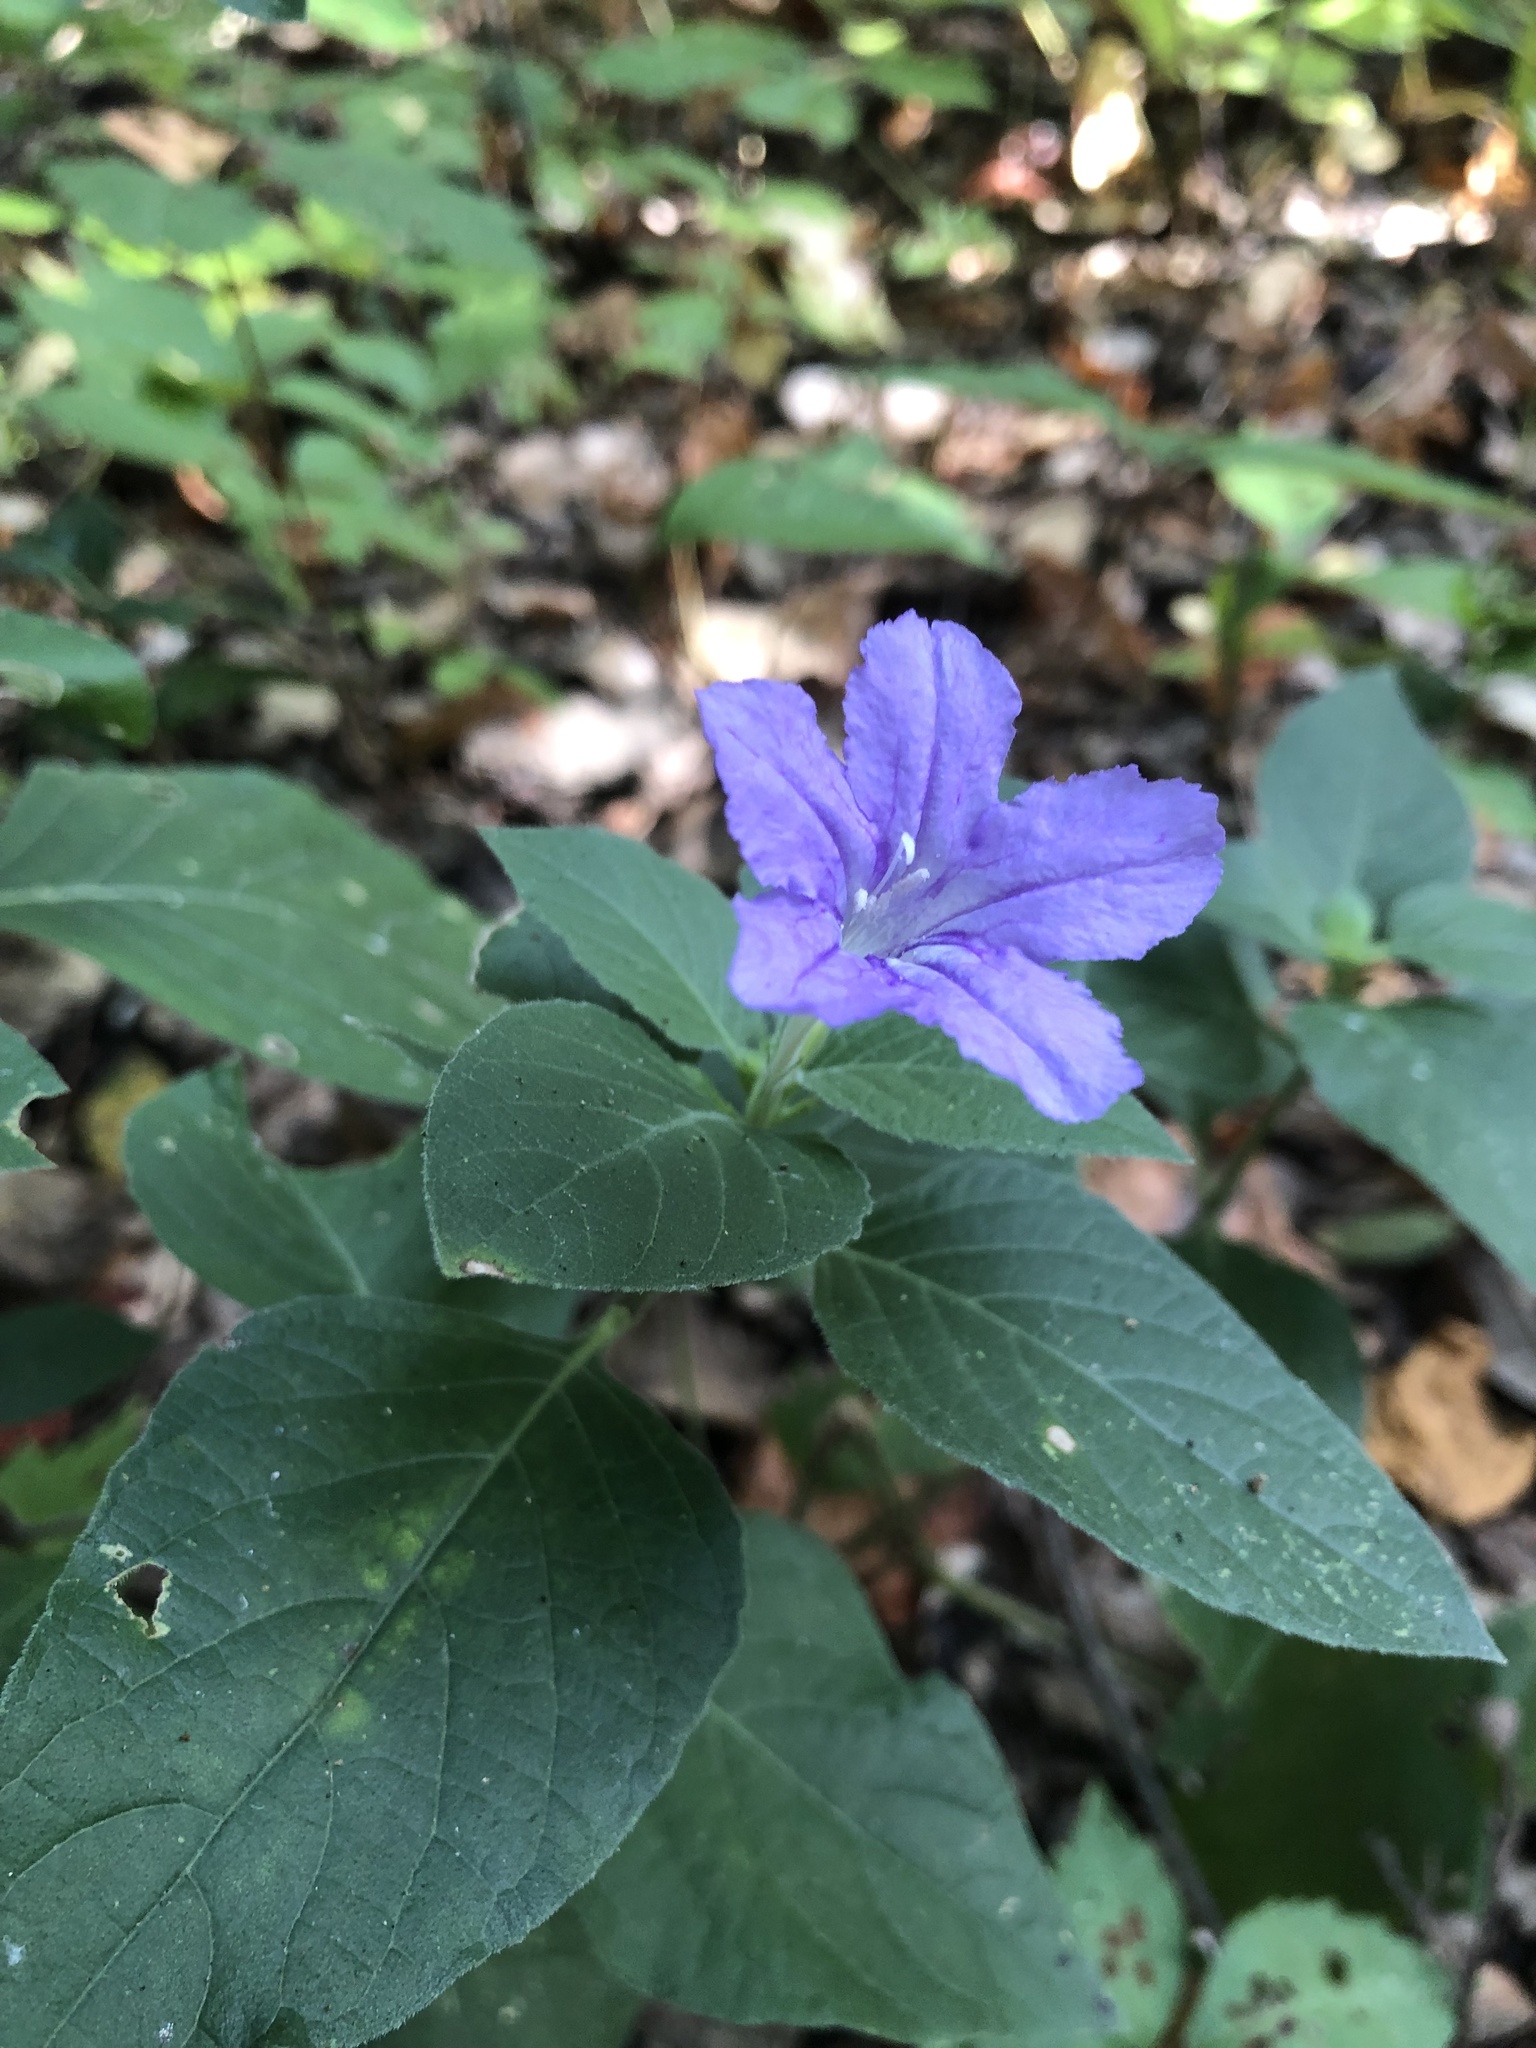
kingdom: Plantae
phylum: Tracheophyta
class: Magnoliopsida
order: Lamiales
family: Acanthaceae
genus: Ruellia
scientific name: Ruellia drummondiana
